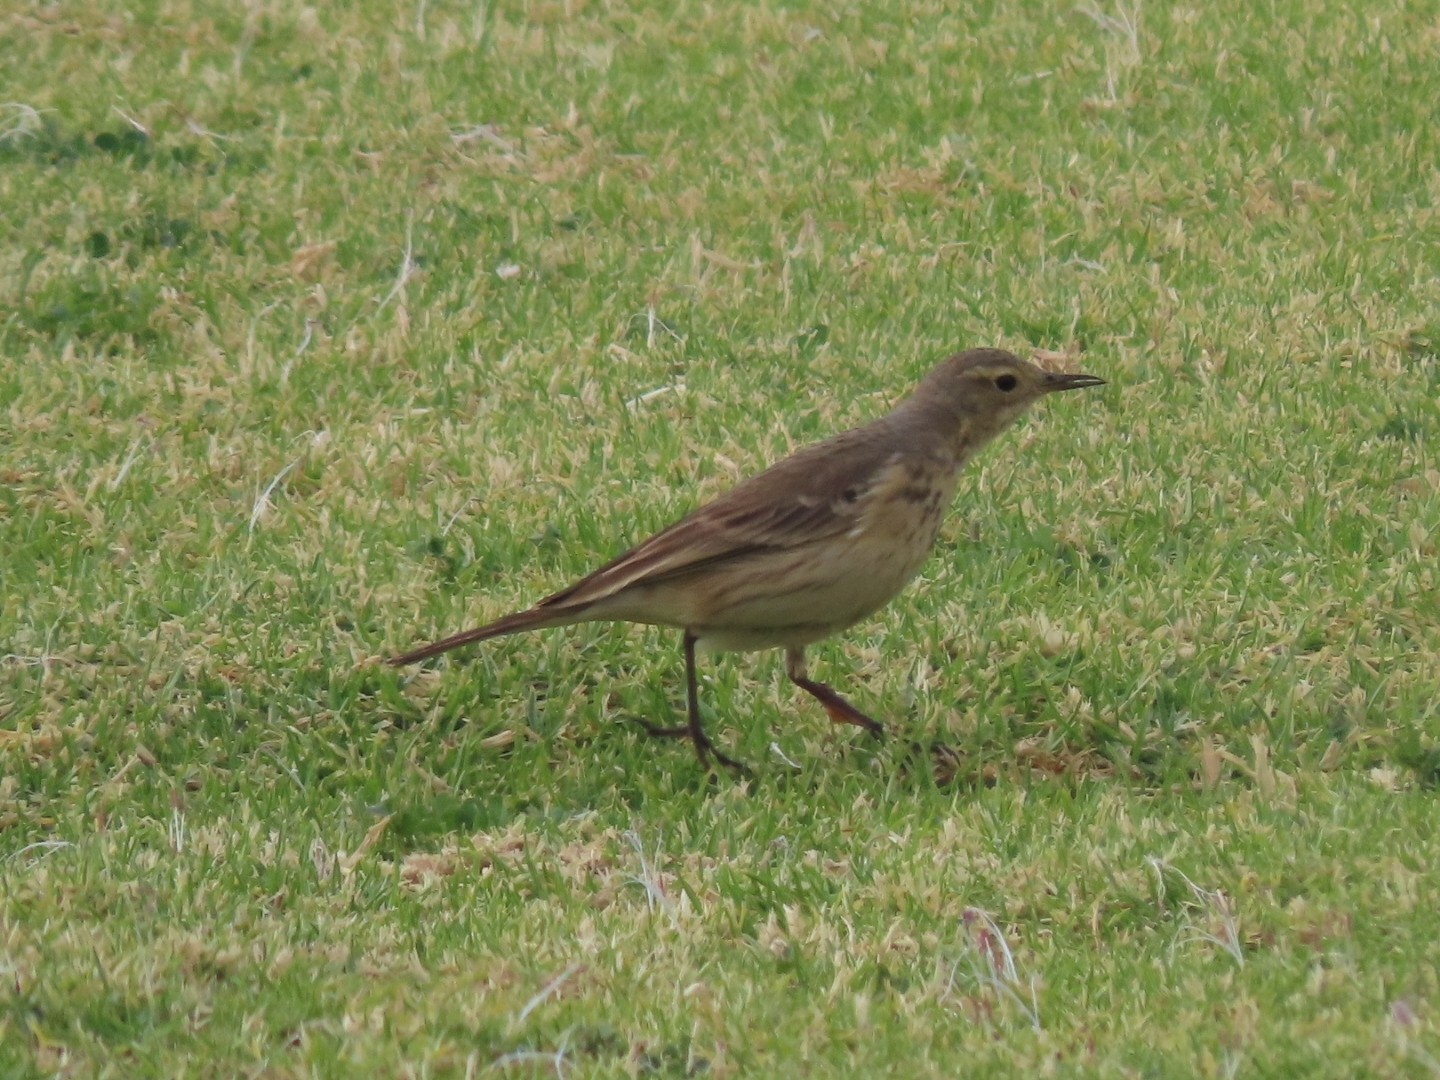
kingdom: Animalia
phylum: Chordata
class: Aves
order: Passeriformes
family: Motacillidae
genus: Anthus
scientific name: Anthus rubescens
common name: Buff-bellied pipit
